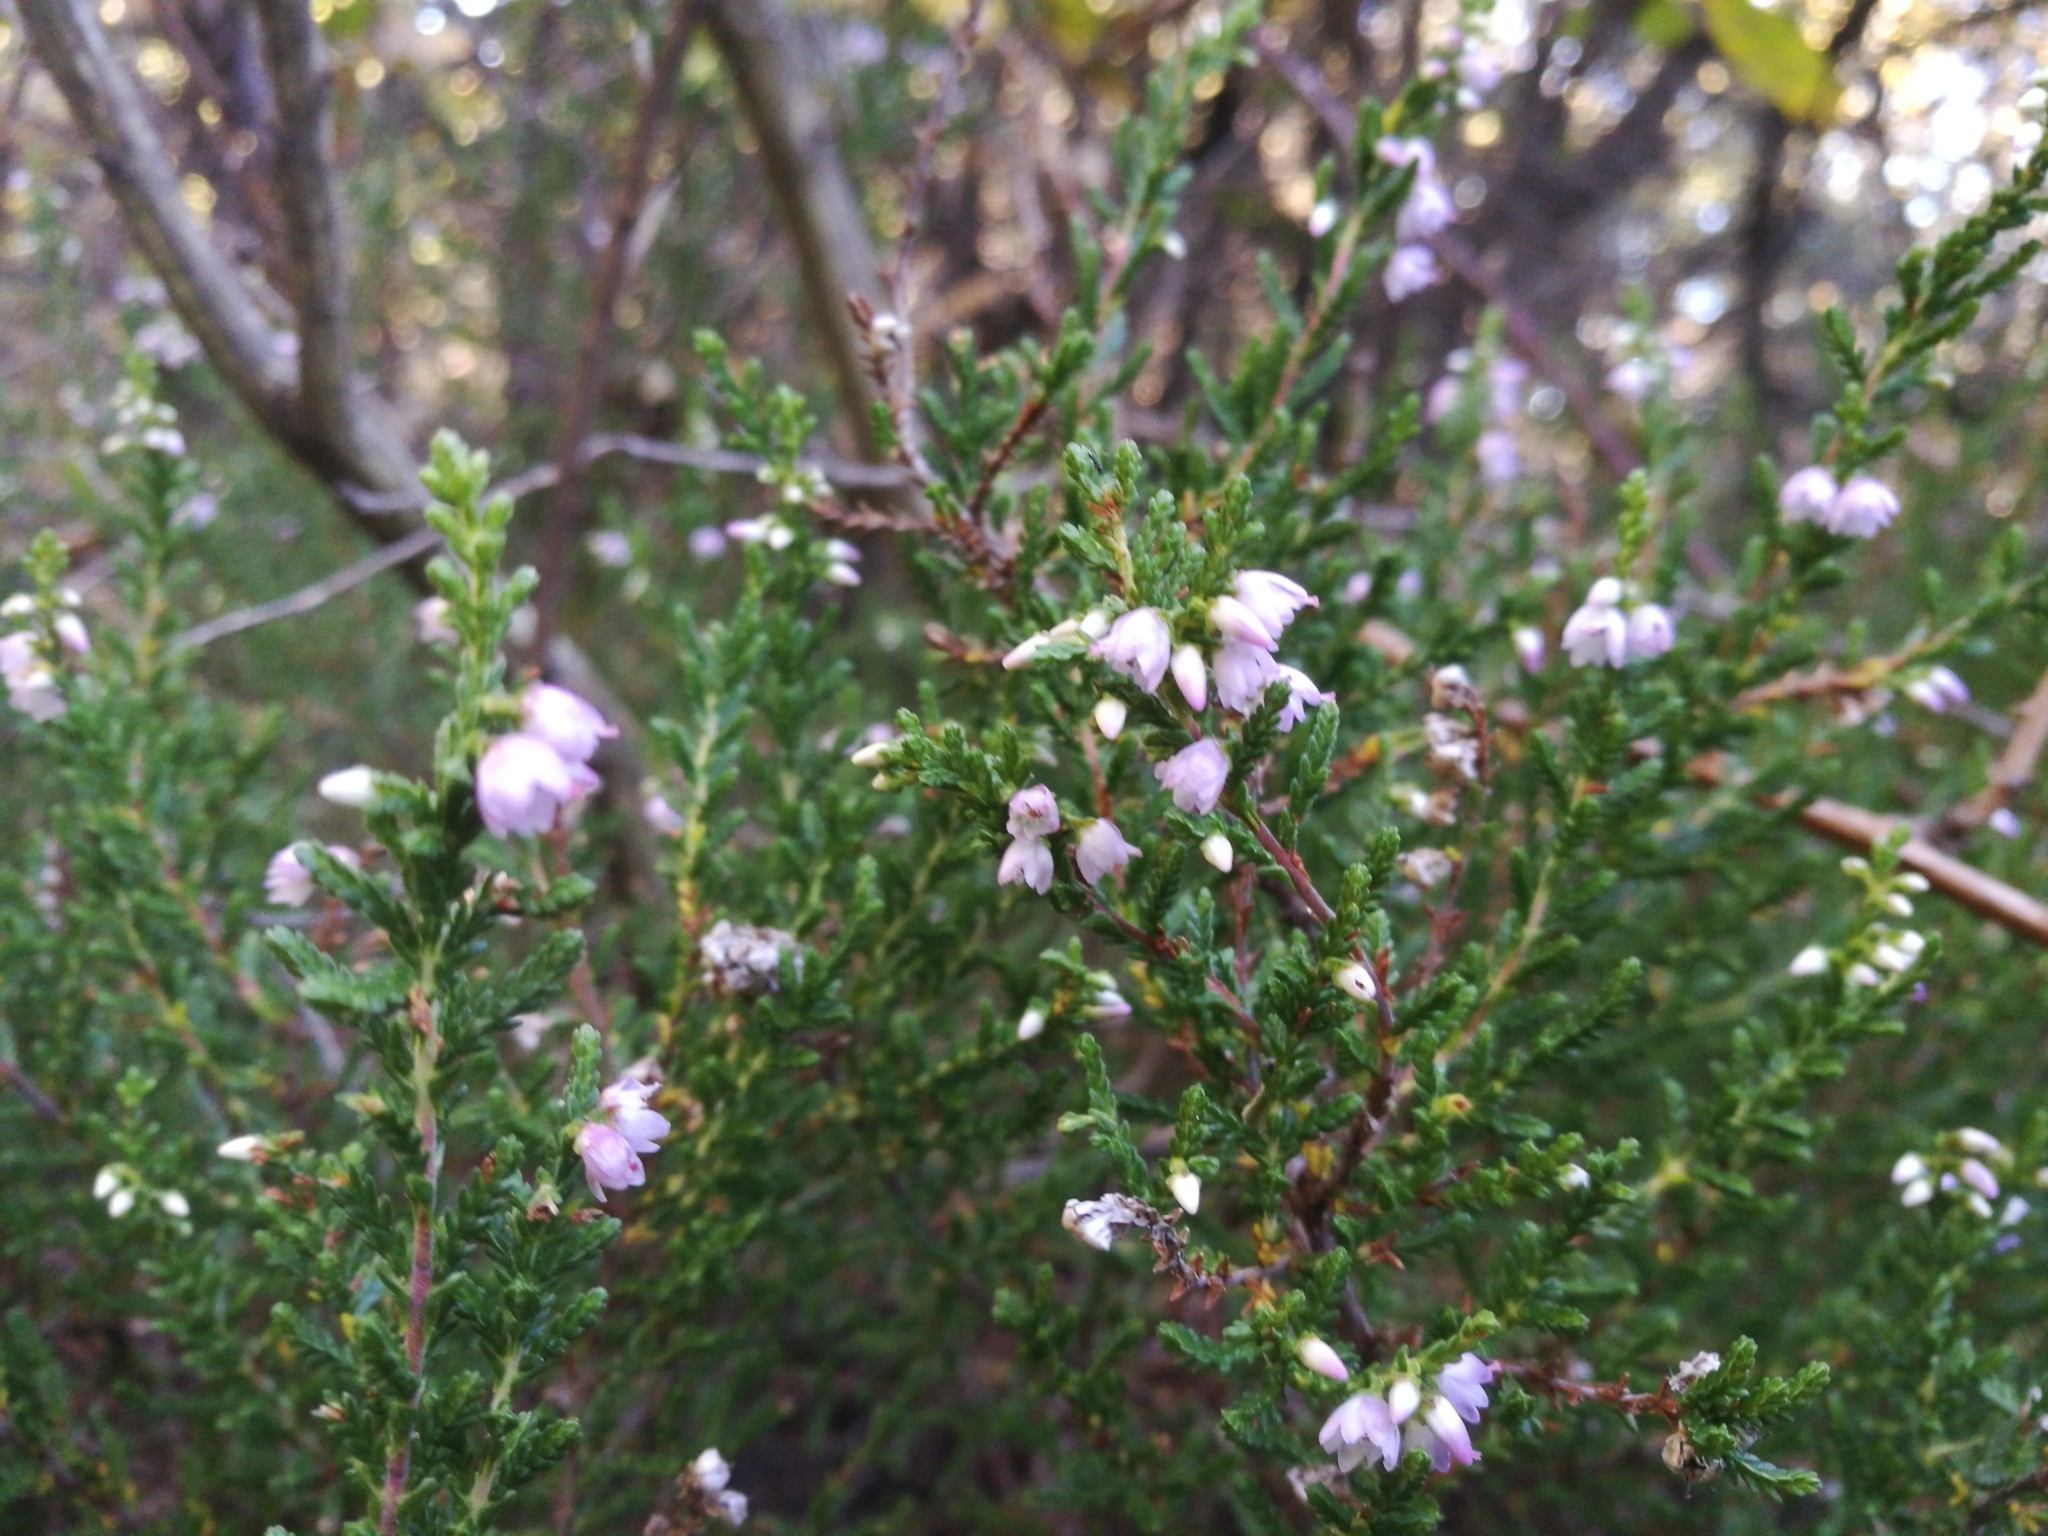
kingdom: Plantae
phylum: Tracheophyta
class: Magnoliopsida
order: Ericales
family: Ericaceae
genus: Calluna
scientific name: Calluna vulgaris
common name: Heather
